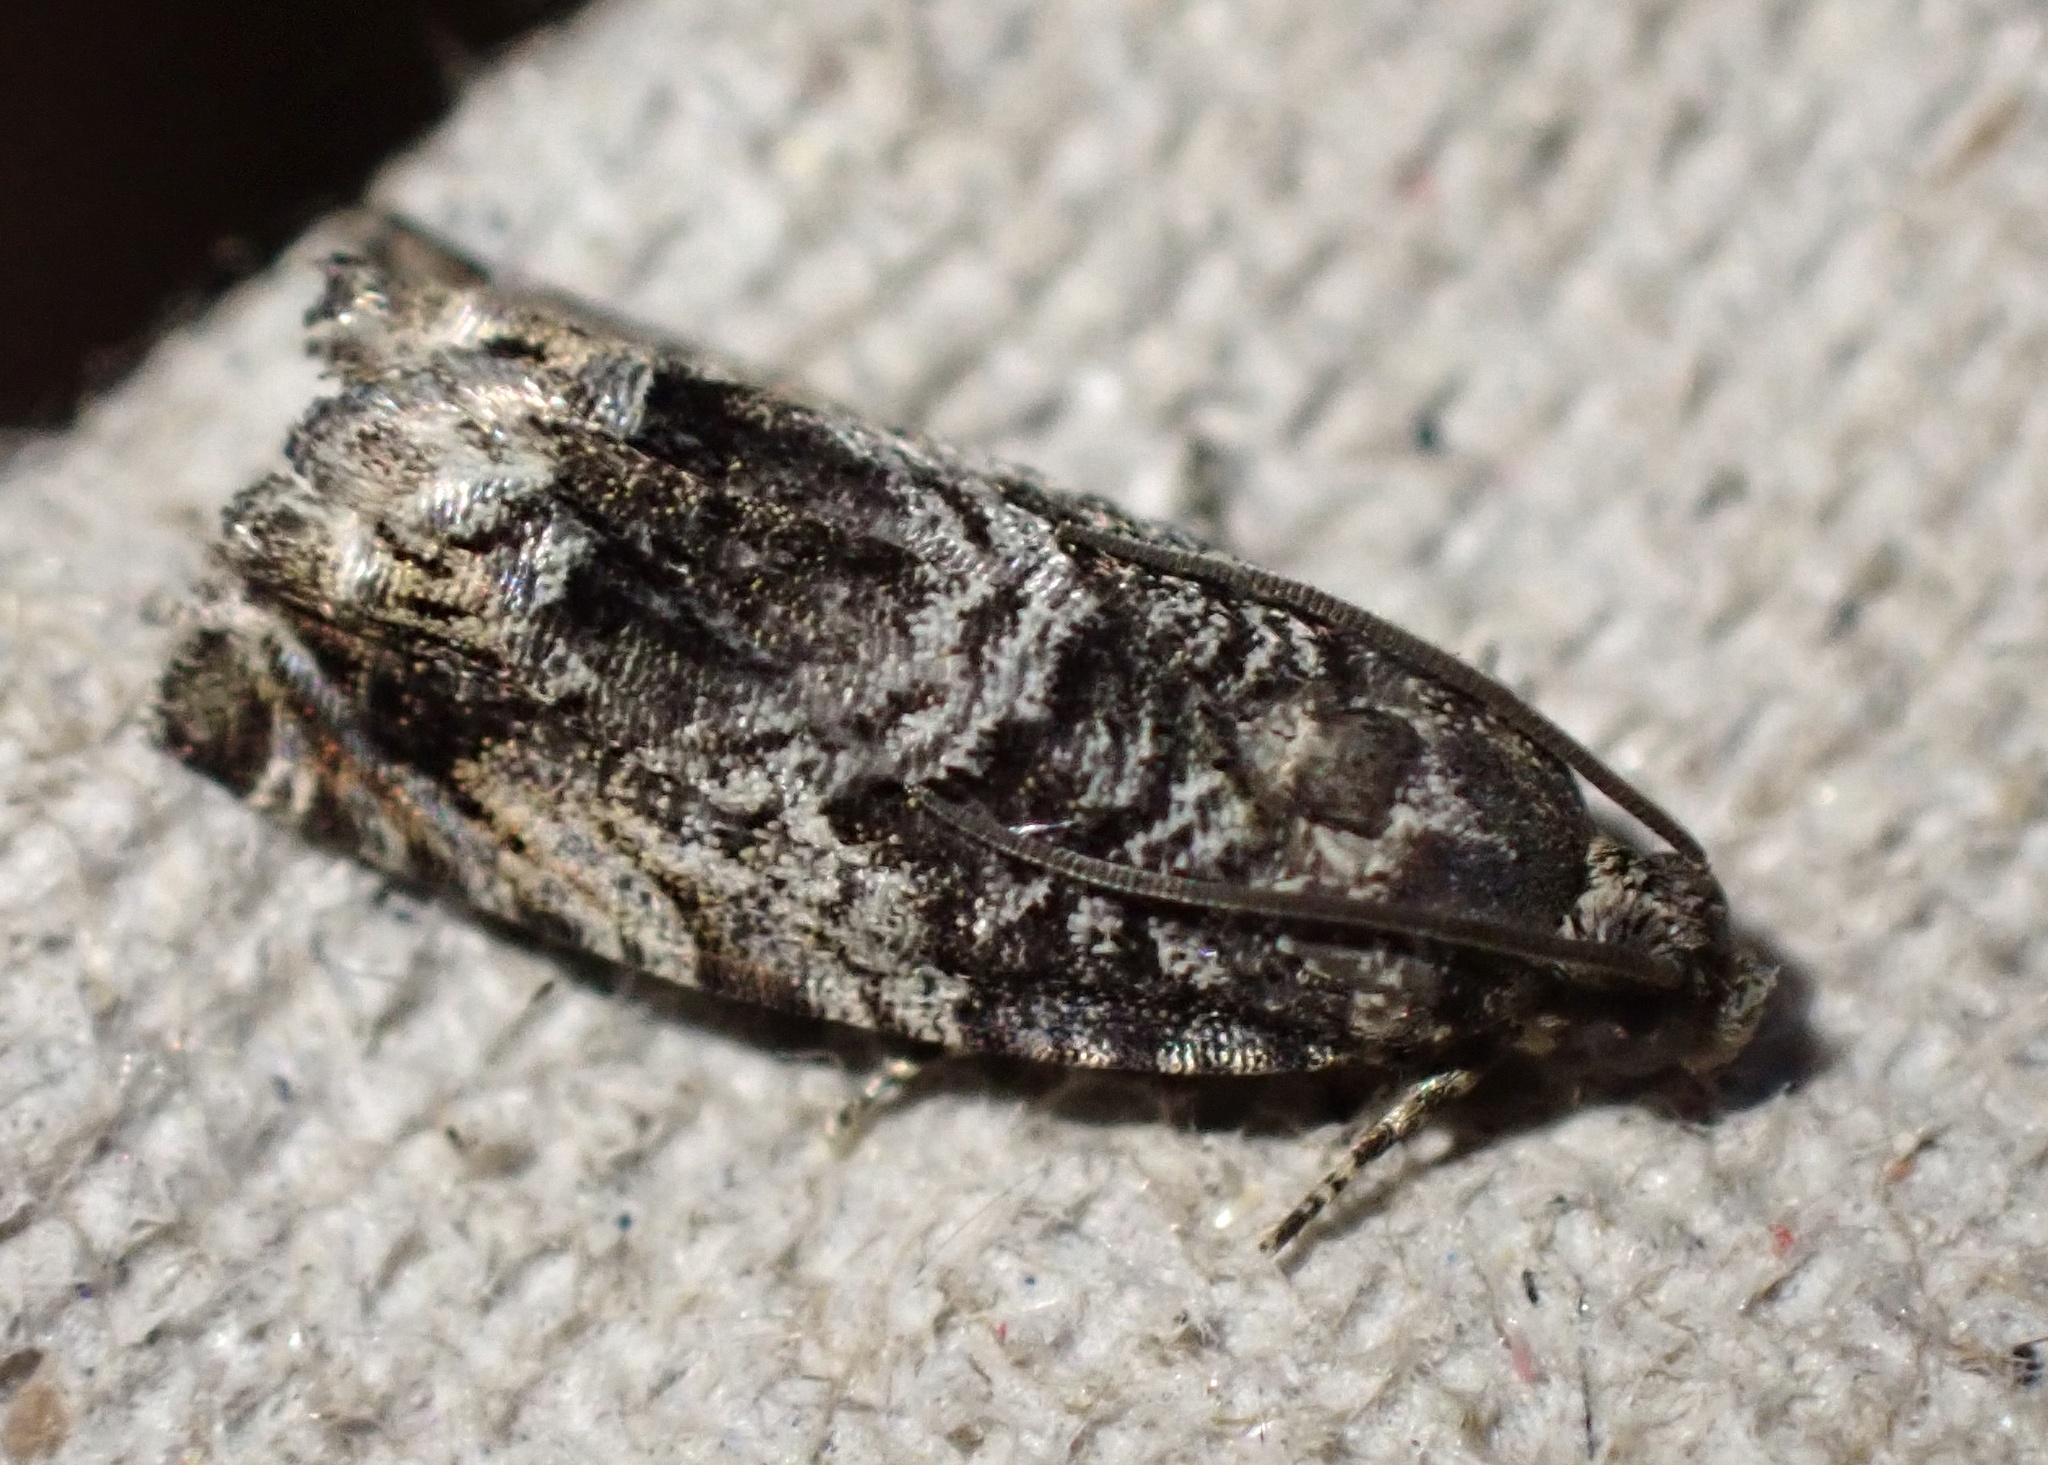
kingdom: Animalia
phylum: Arthropoda
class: Insecta
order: Lepidoptera
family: Tortricidae
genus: Cydia
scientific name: Cydia fagiglandana
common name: Large beech piercer
